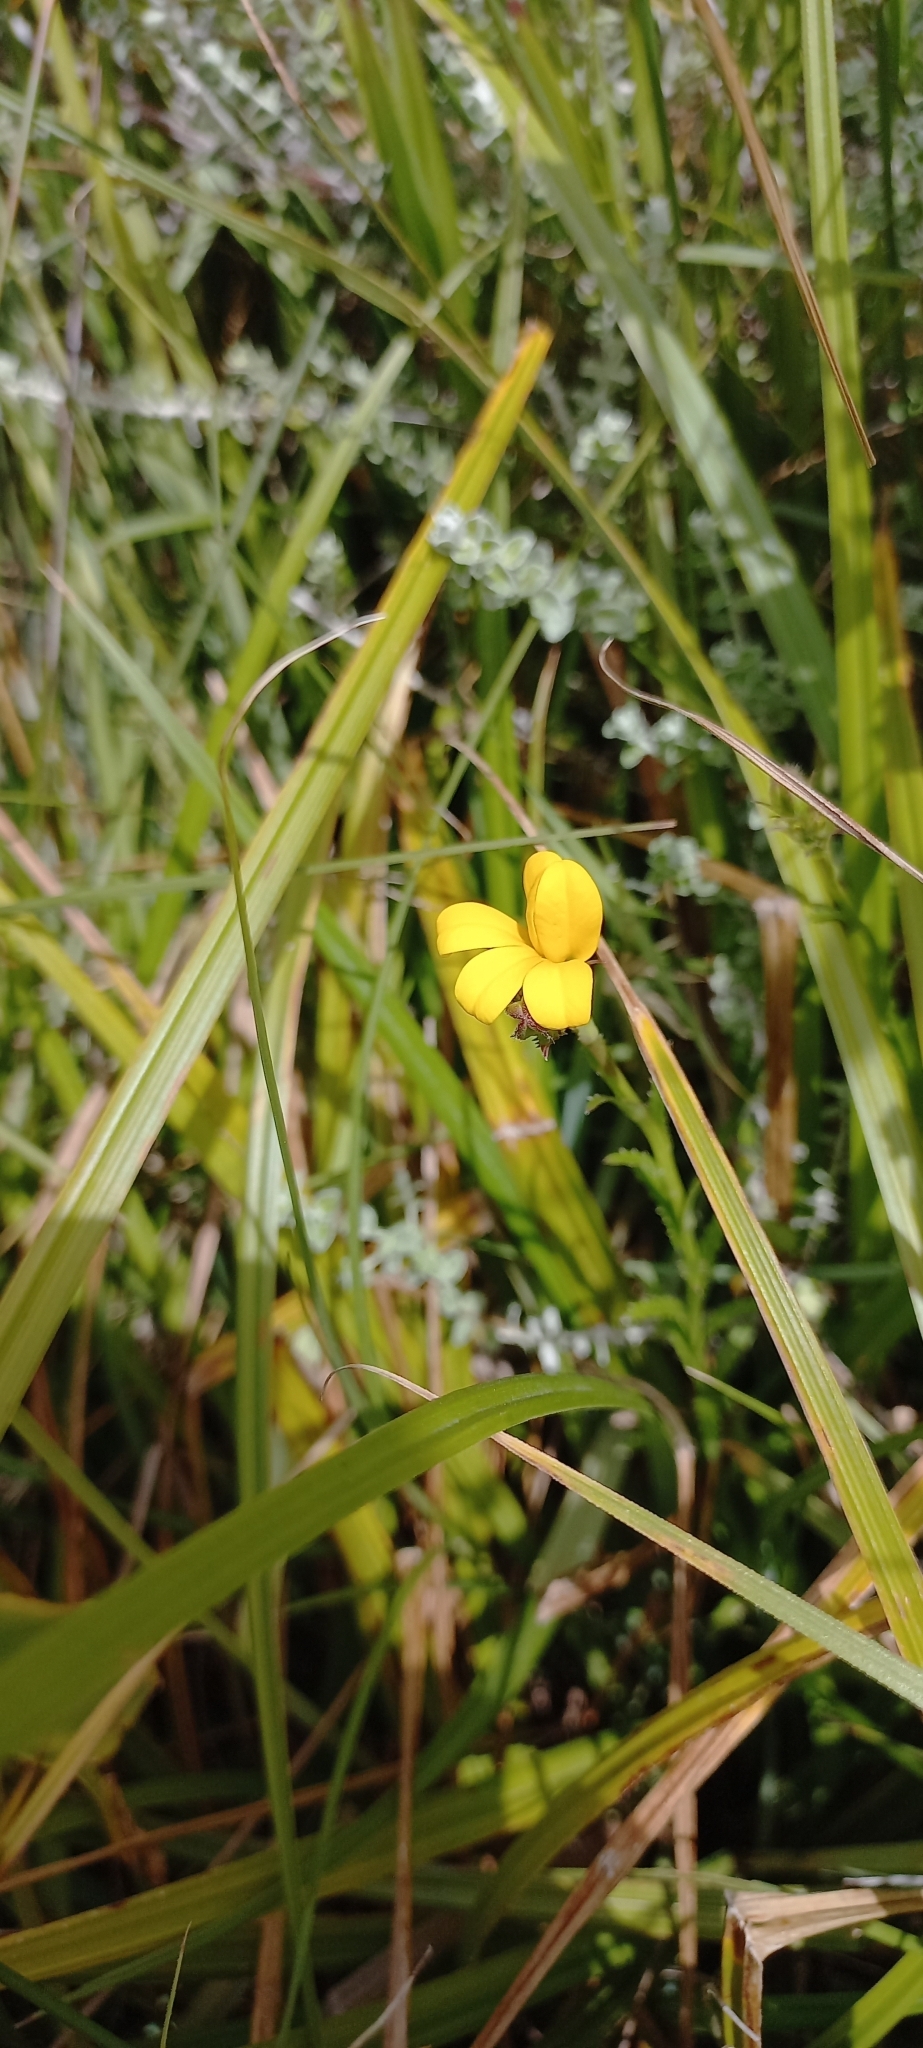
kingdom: Plantae
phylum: Tracheophyta
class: Magnoliopsida
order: Asterales
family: Campanulaceae
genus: Monopsis
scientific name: Monopsis lutea
